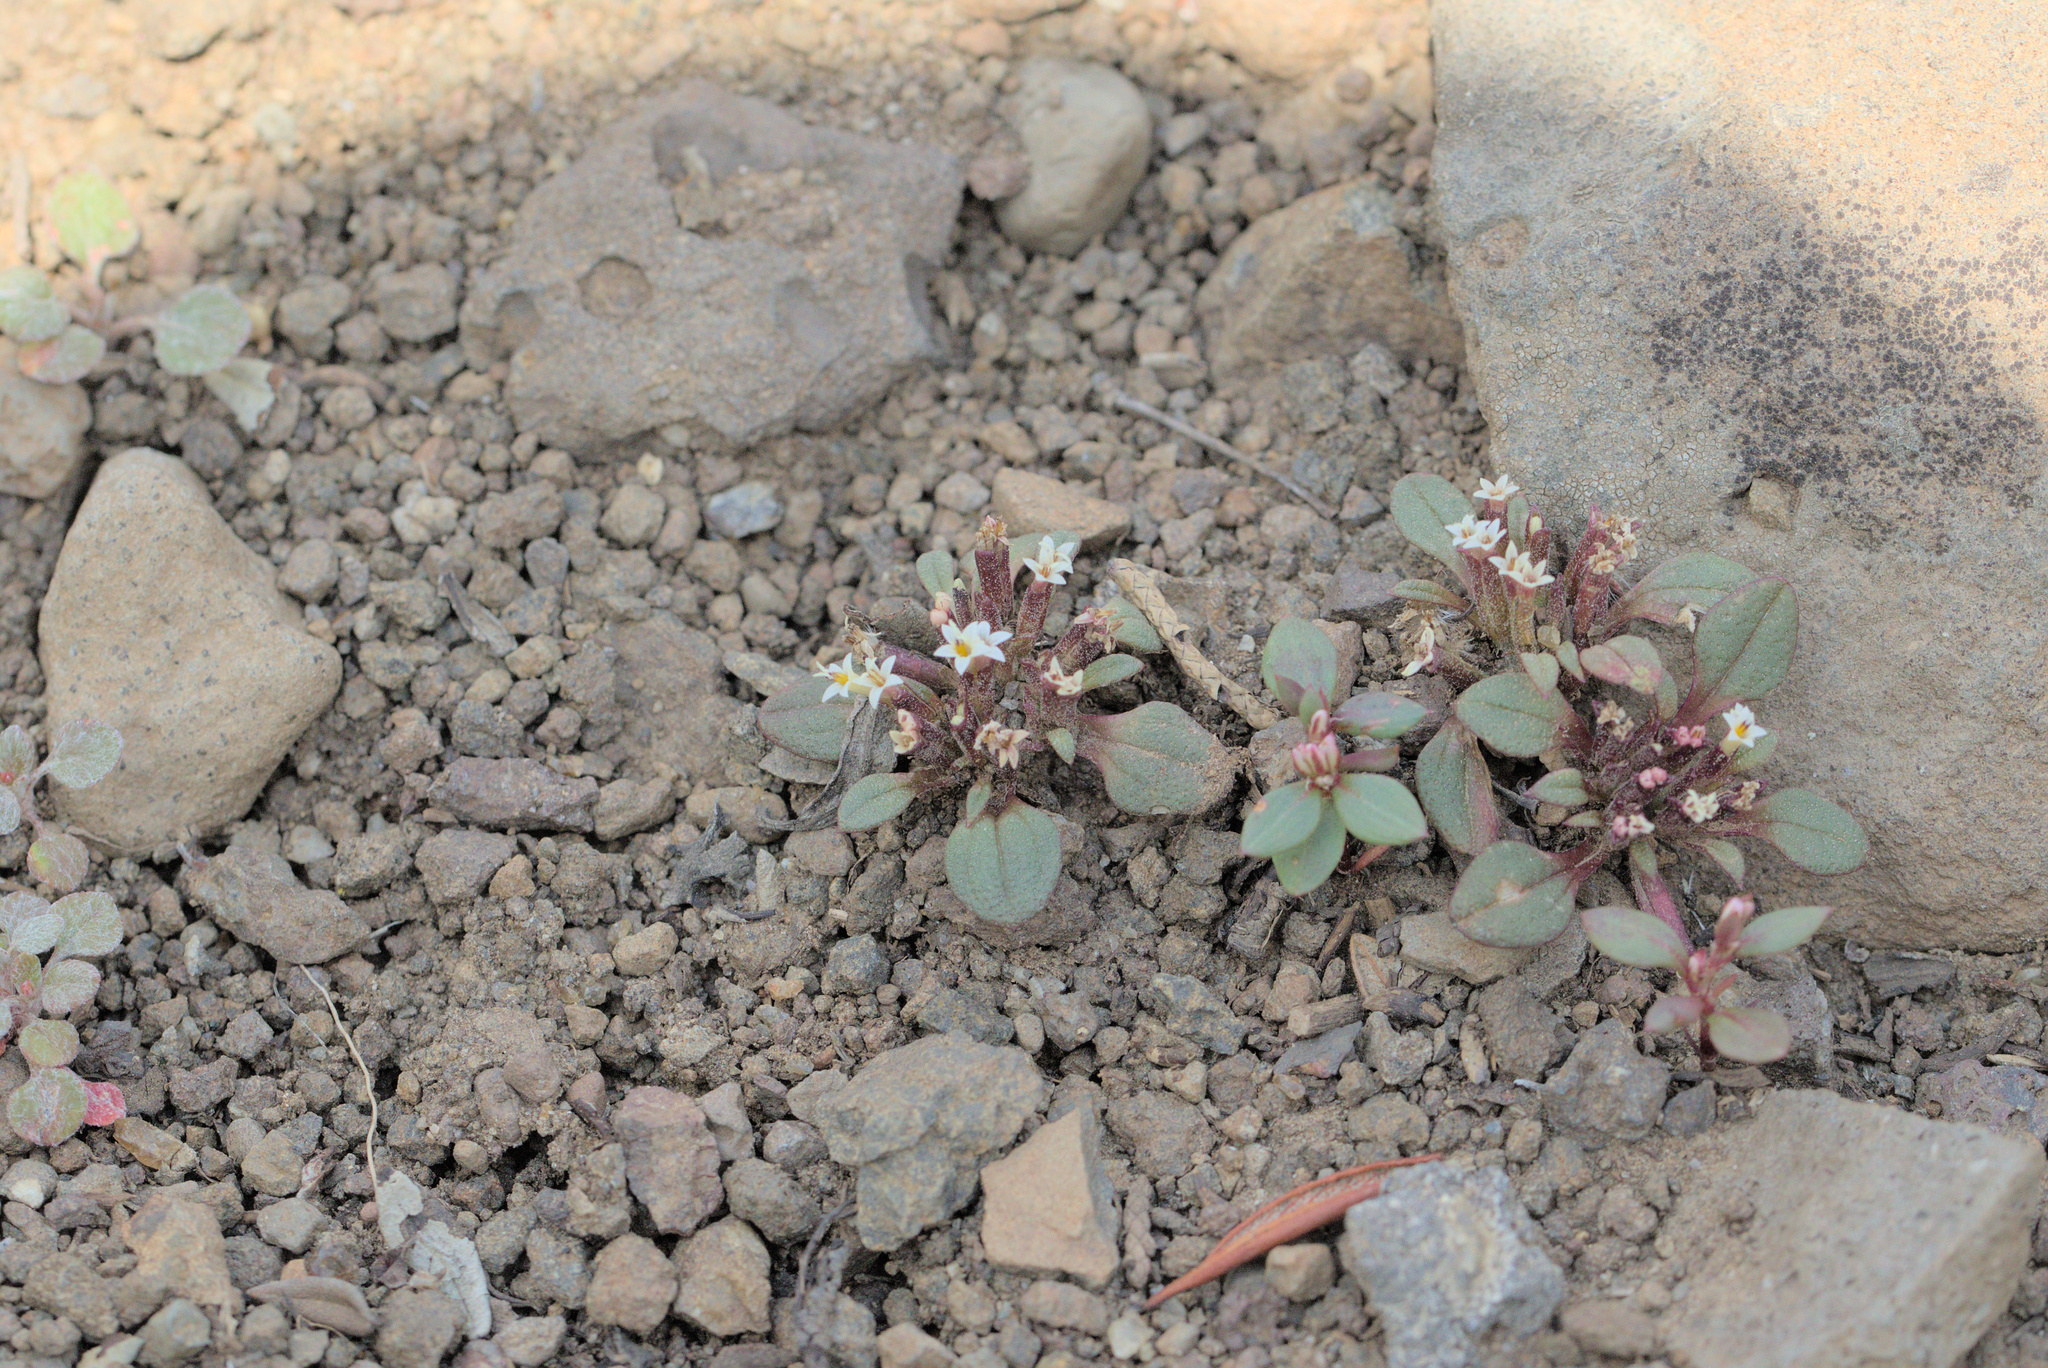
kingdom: Plantae
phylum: Tracheophyta
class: Magnoliopsida
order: Asterales
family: Asteraceae
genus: Dimeresia
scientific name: Dimeresia howellii
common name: Doublet
